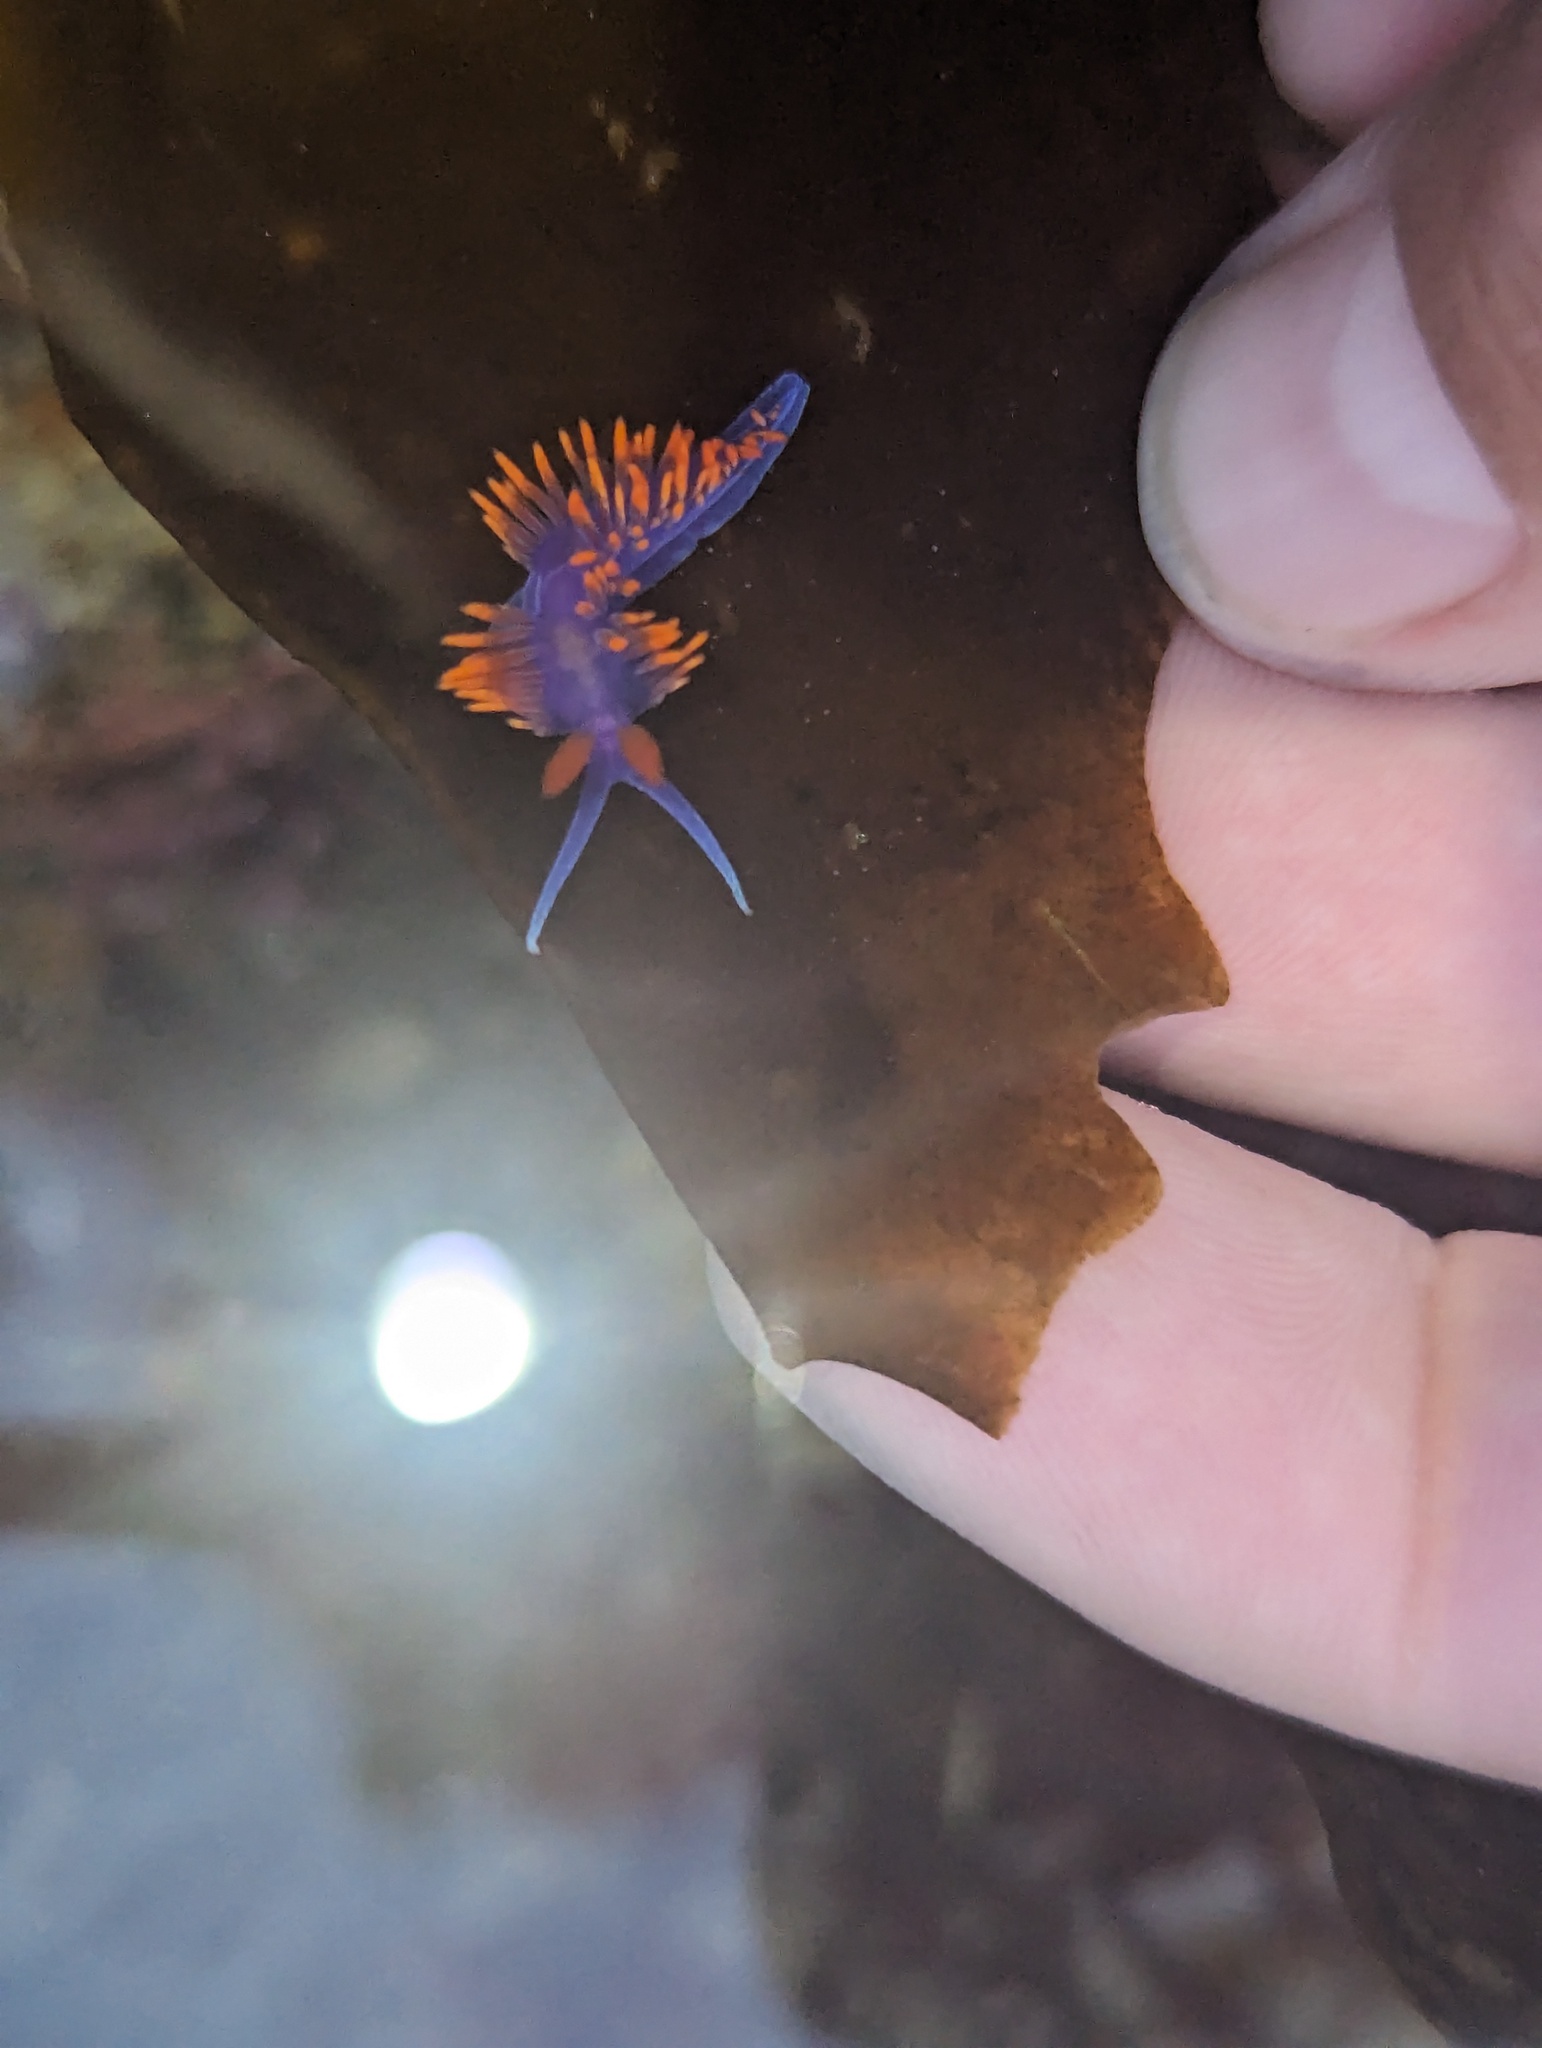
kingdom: Animalia
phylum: Mollusca
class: Gastropoda
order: Nudibranchia
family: Flabellinopsidae
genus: Flabellinopsis
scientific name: Flabellinopsis iodinea
